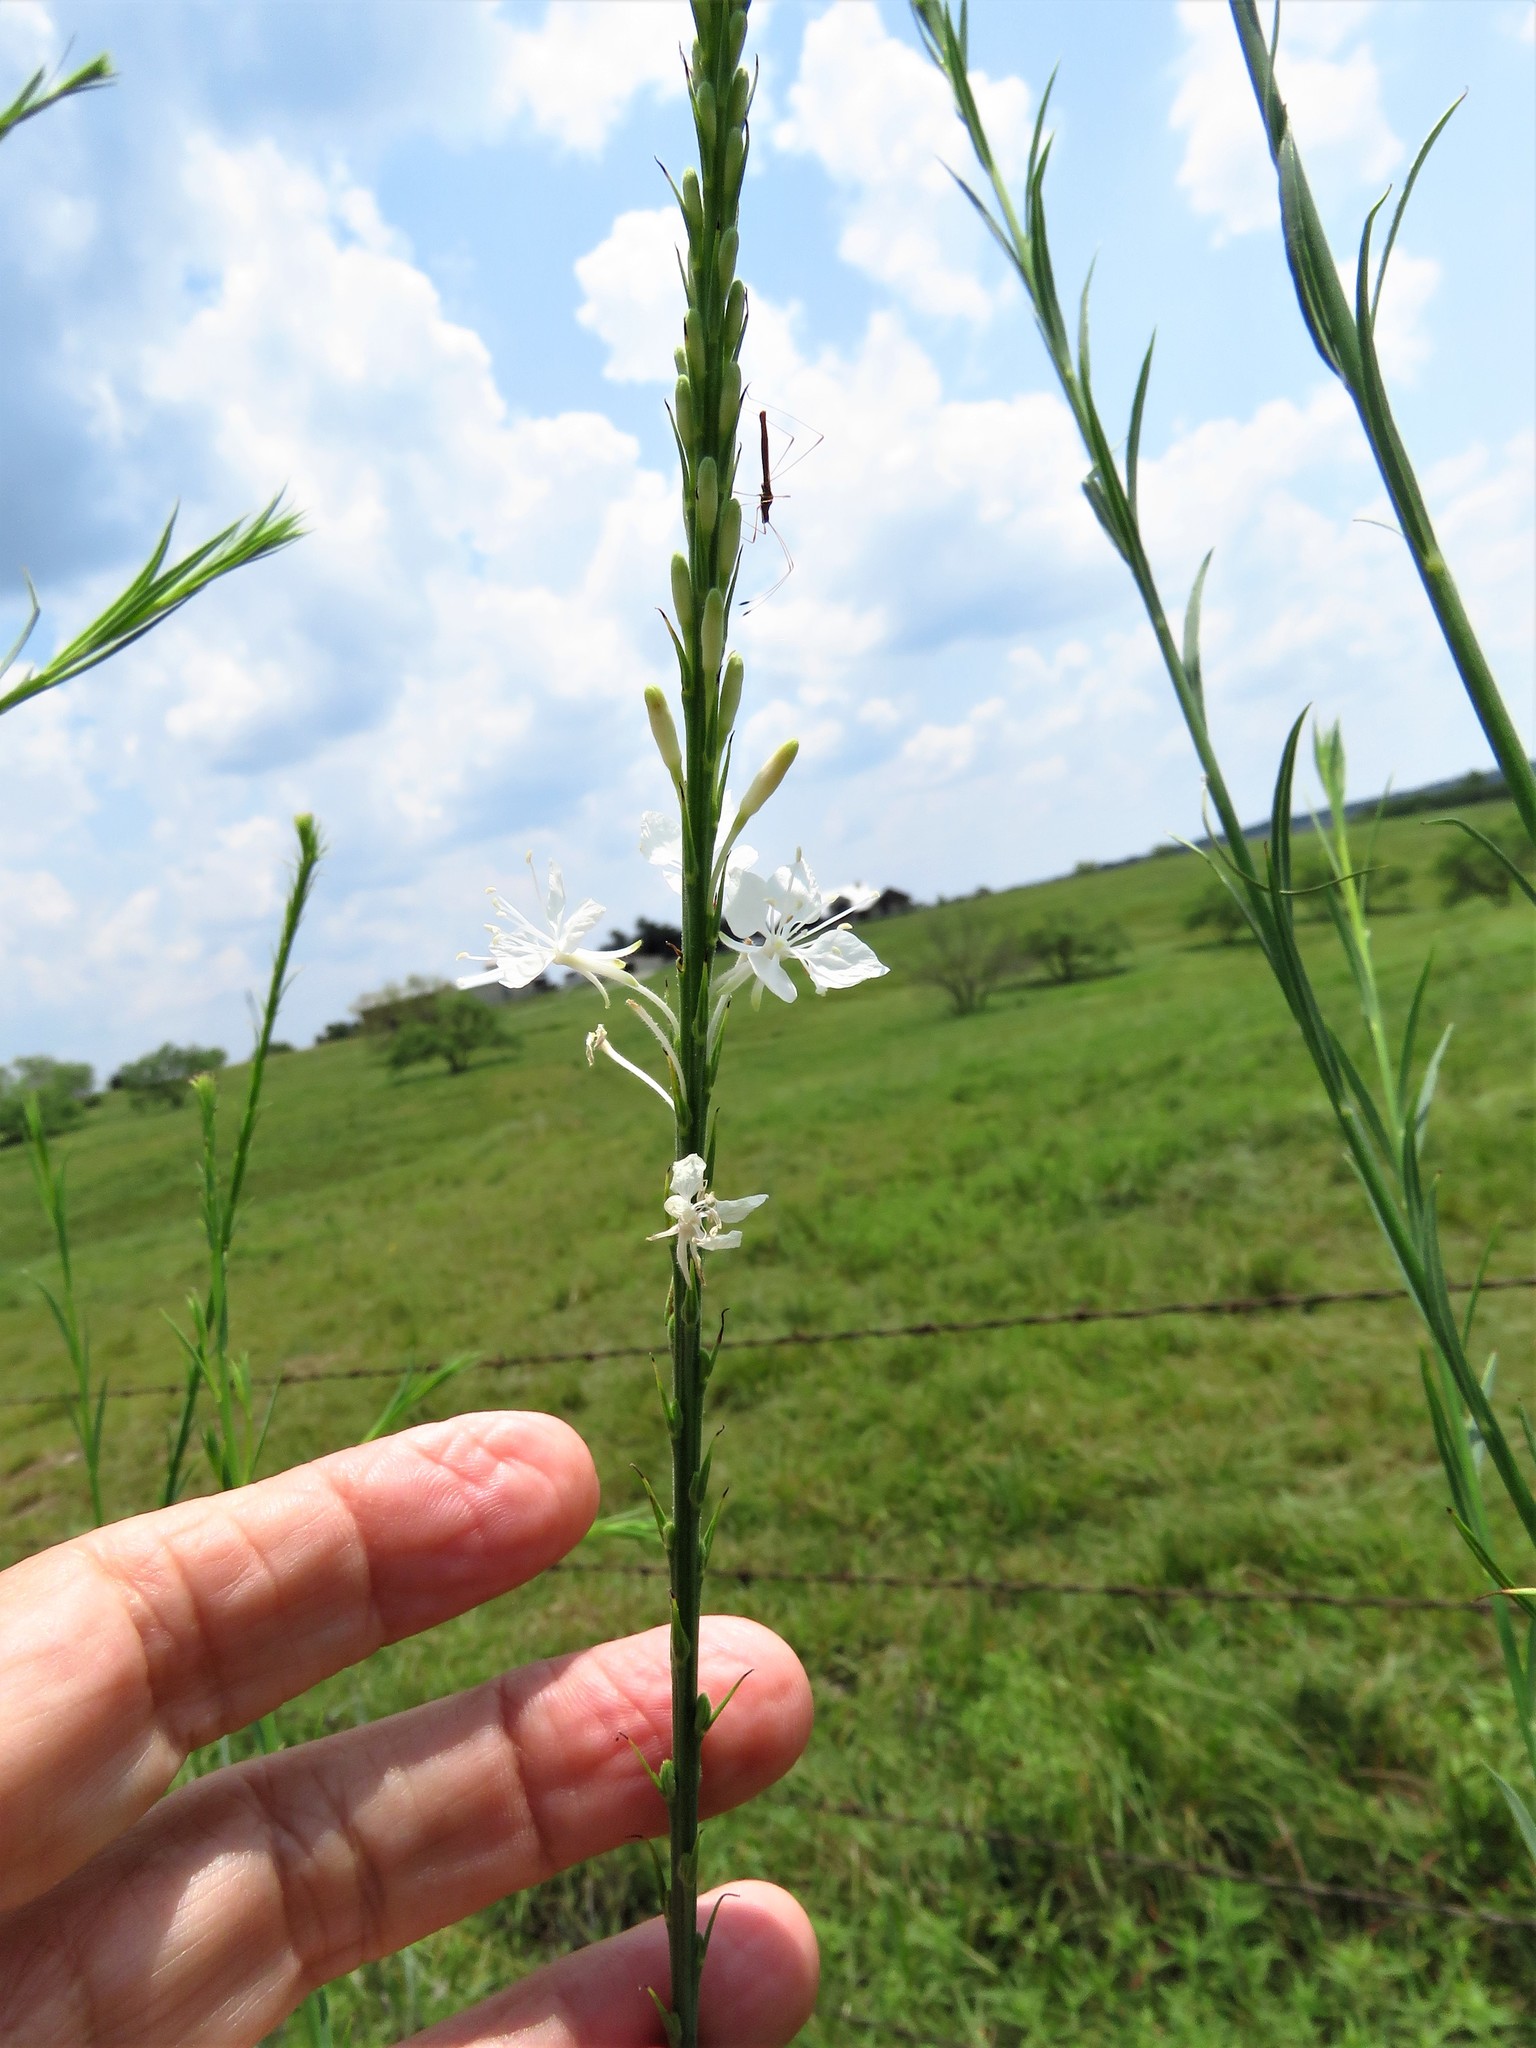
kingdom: Plantae
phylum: Tracheophyta
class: Magnoliopsida
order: Myrtales
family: Onagraceae
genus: Oenothera
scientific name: Oenothera glaucifolia
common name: False gaura
